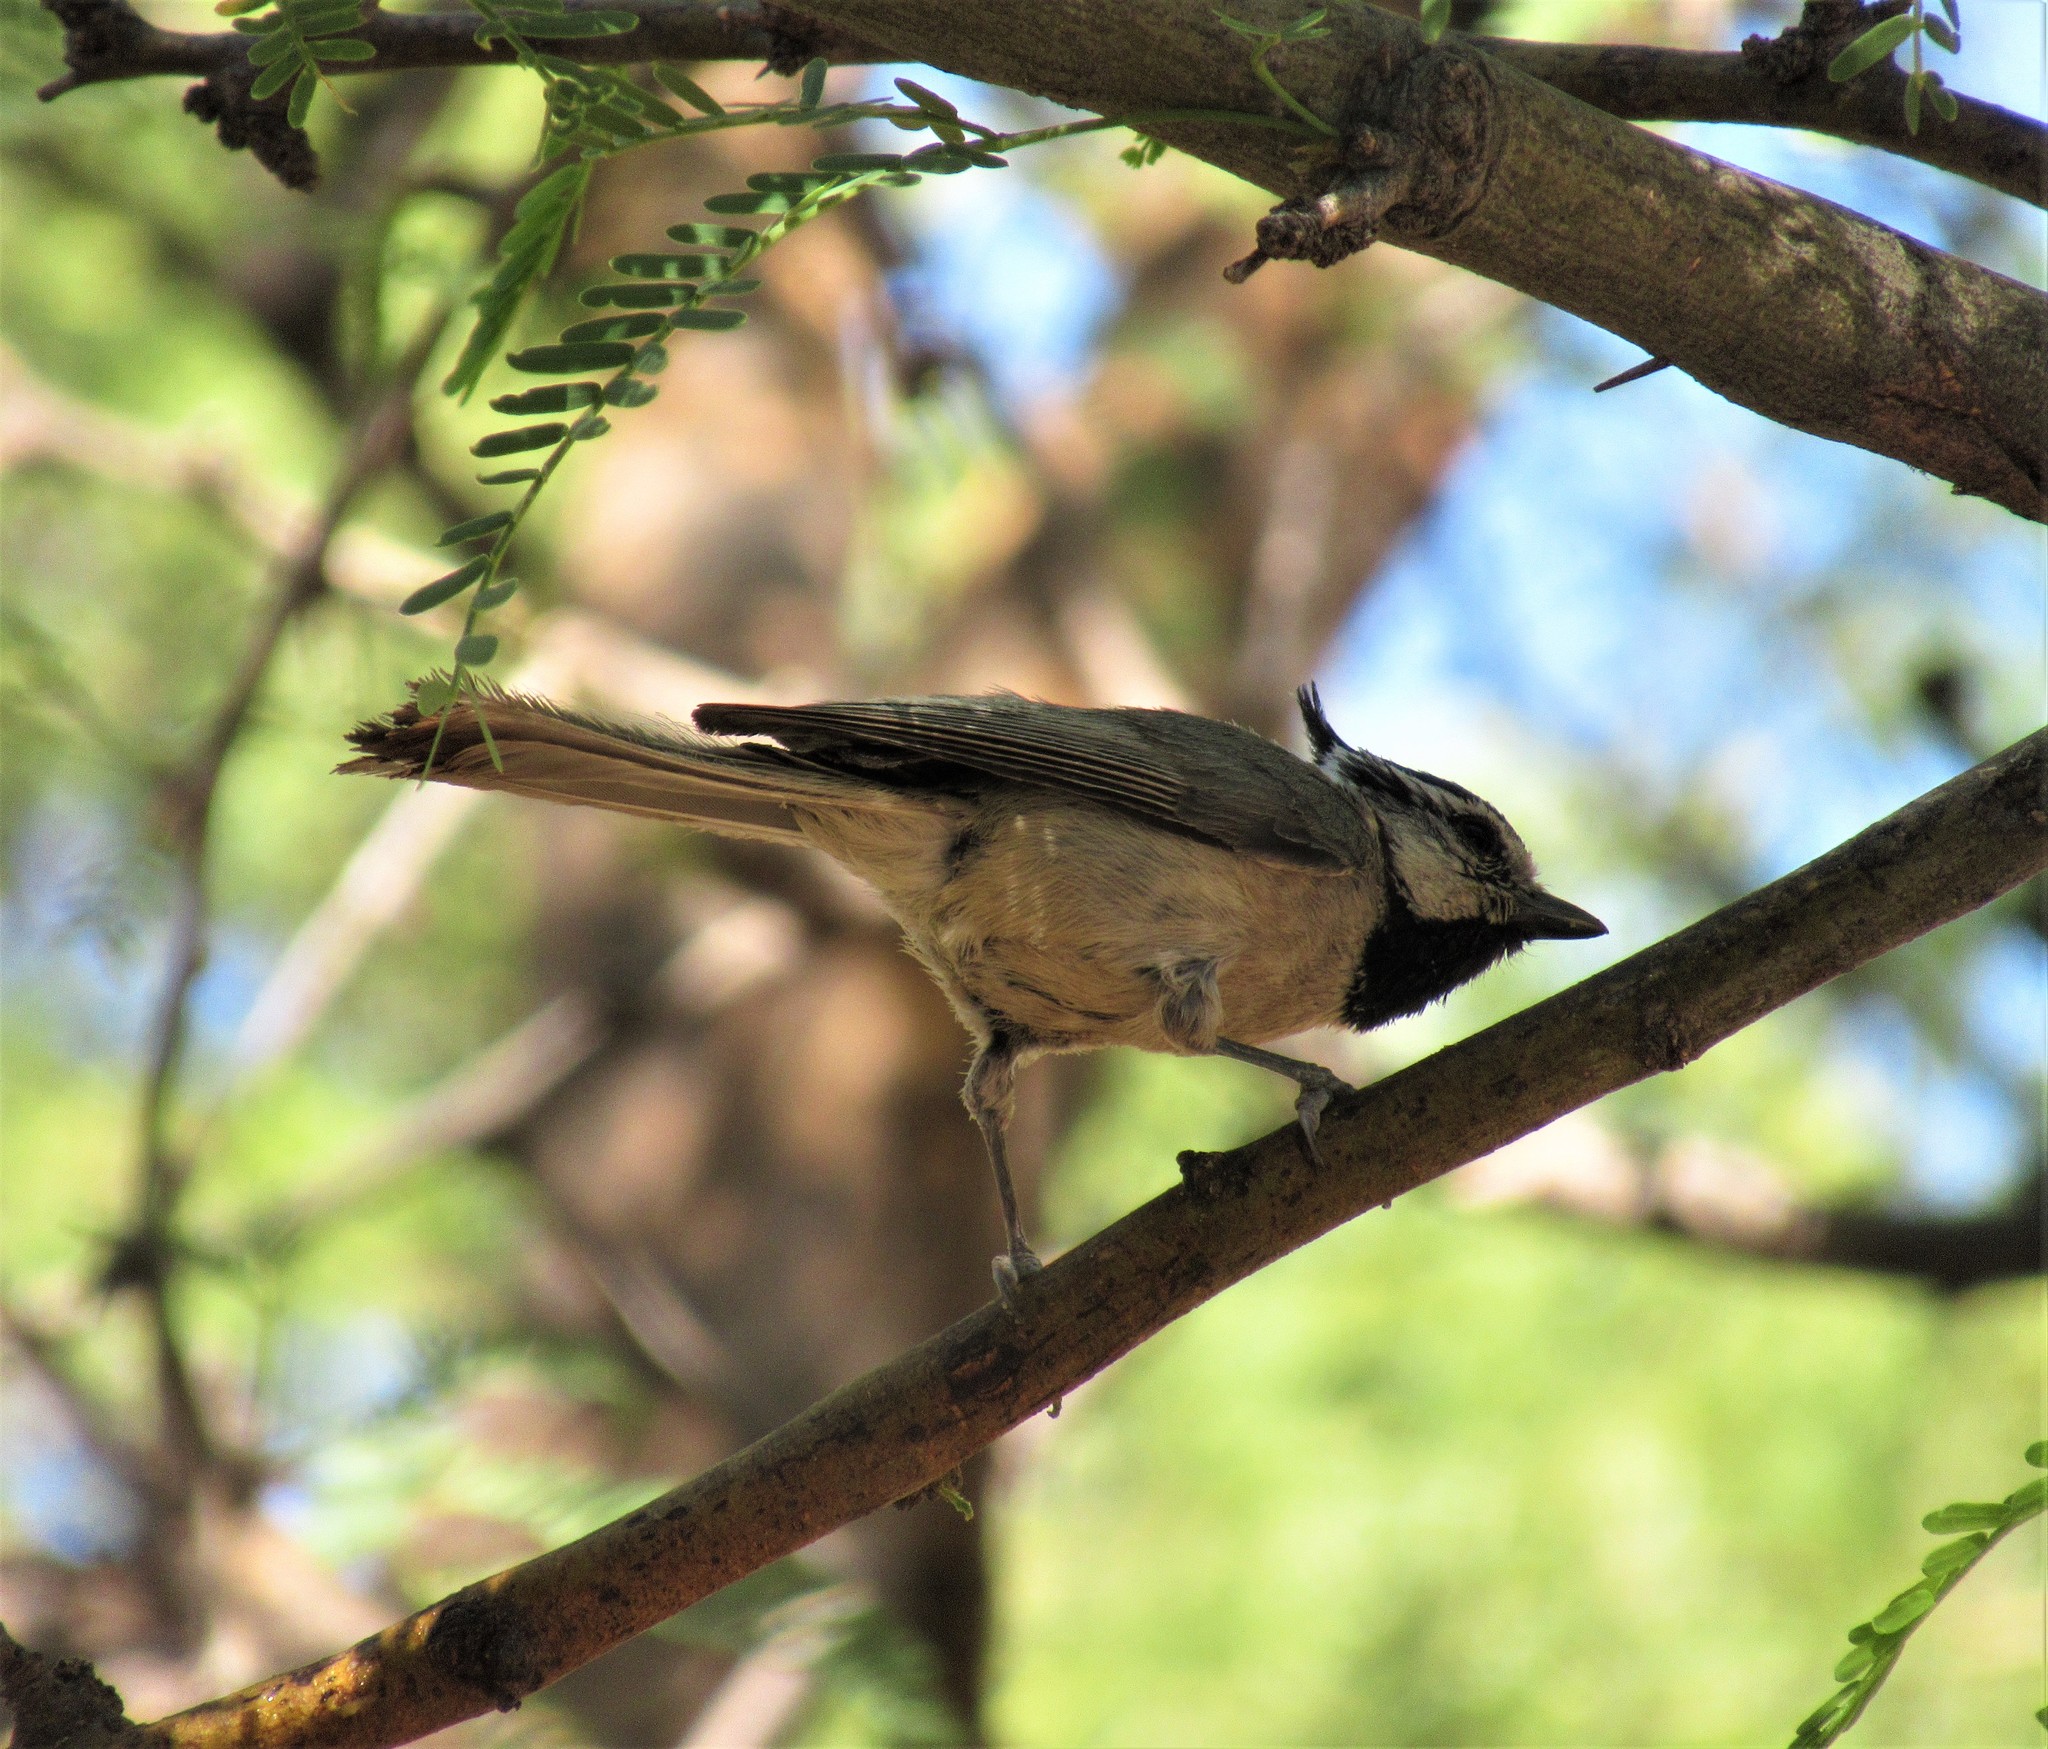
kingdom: Animalia
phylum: Chordata
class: Aves
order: Passeriformes
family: Paridae
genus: Baeolophus
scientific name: Baeolophus wollweberi
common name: Bridled titmouse
